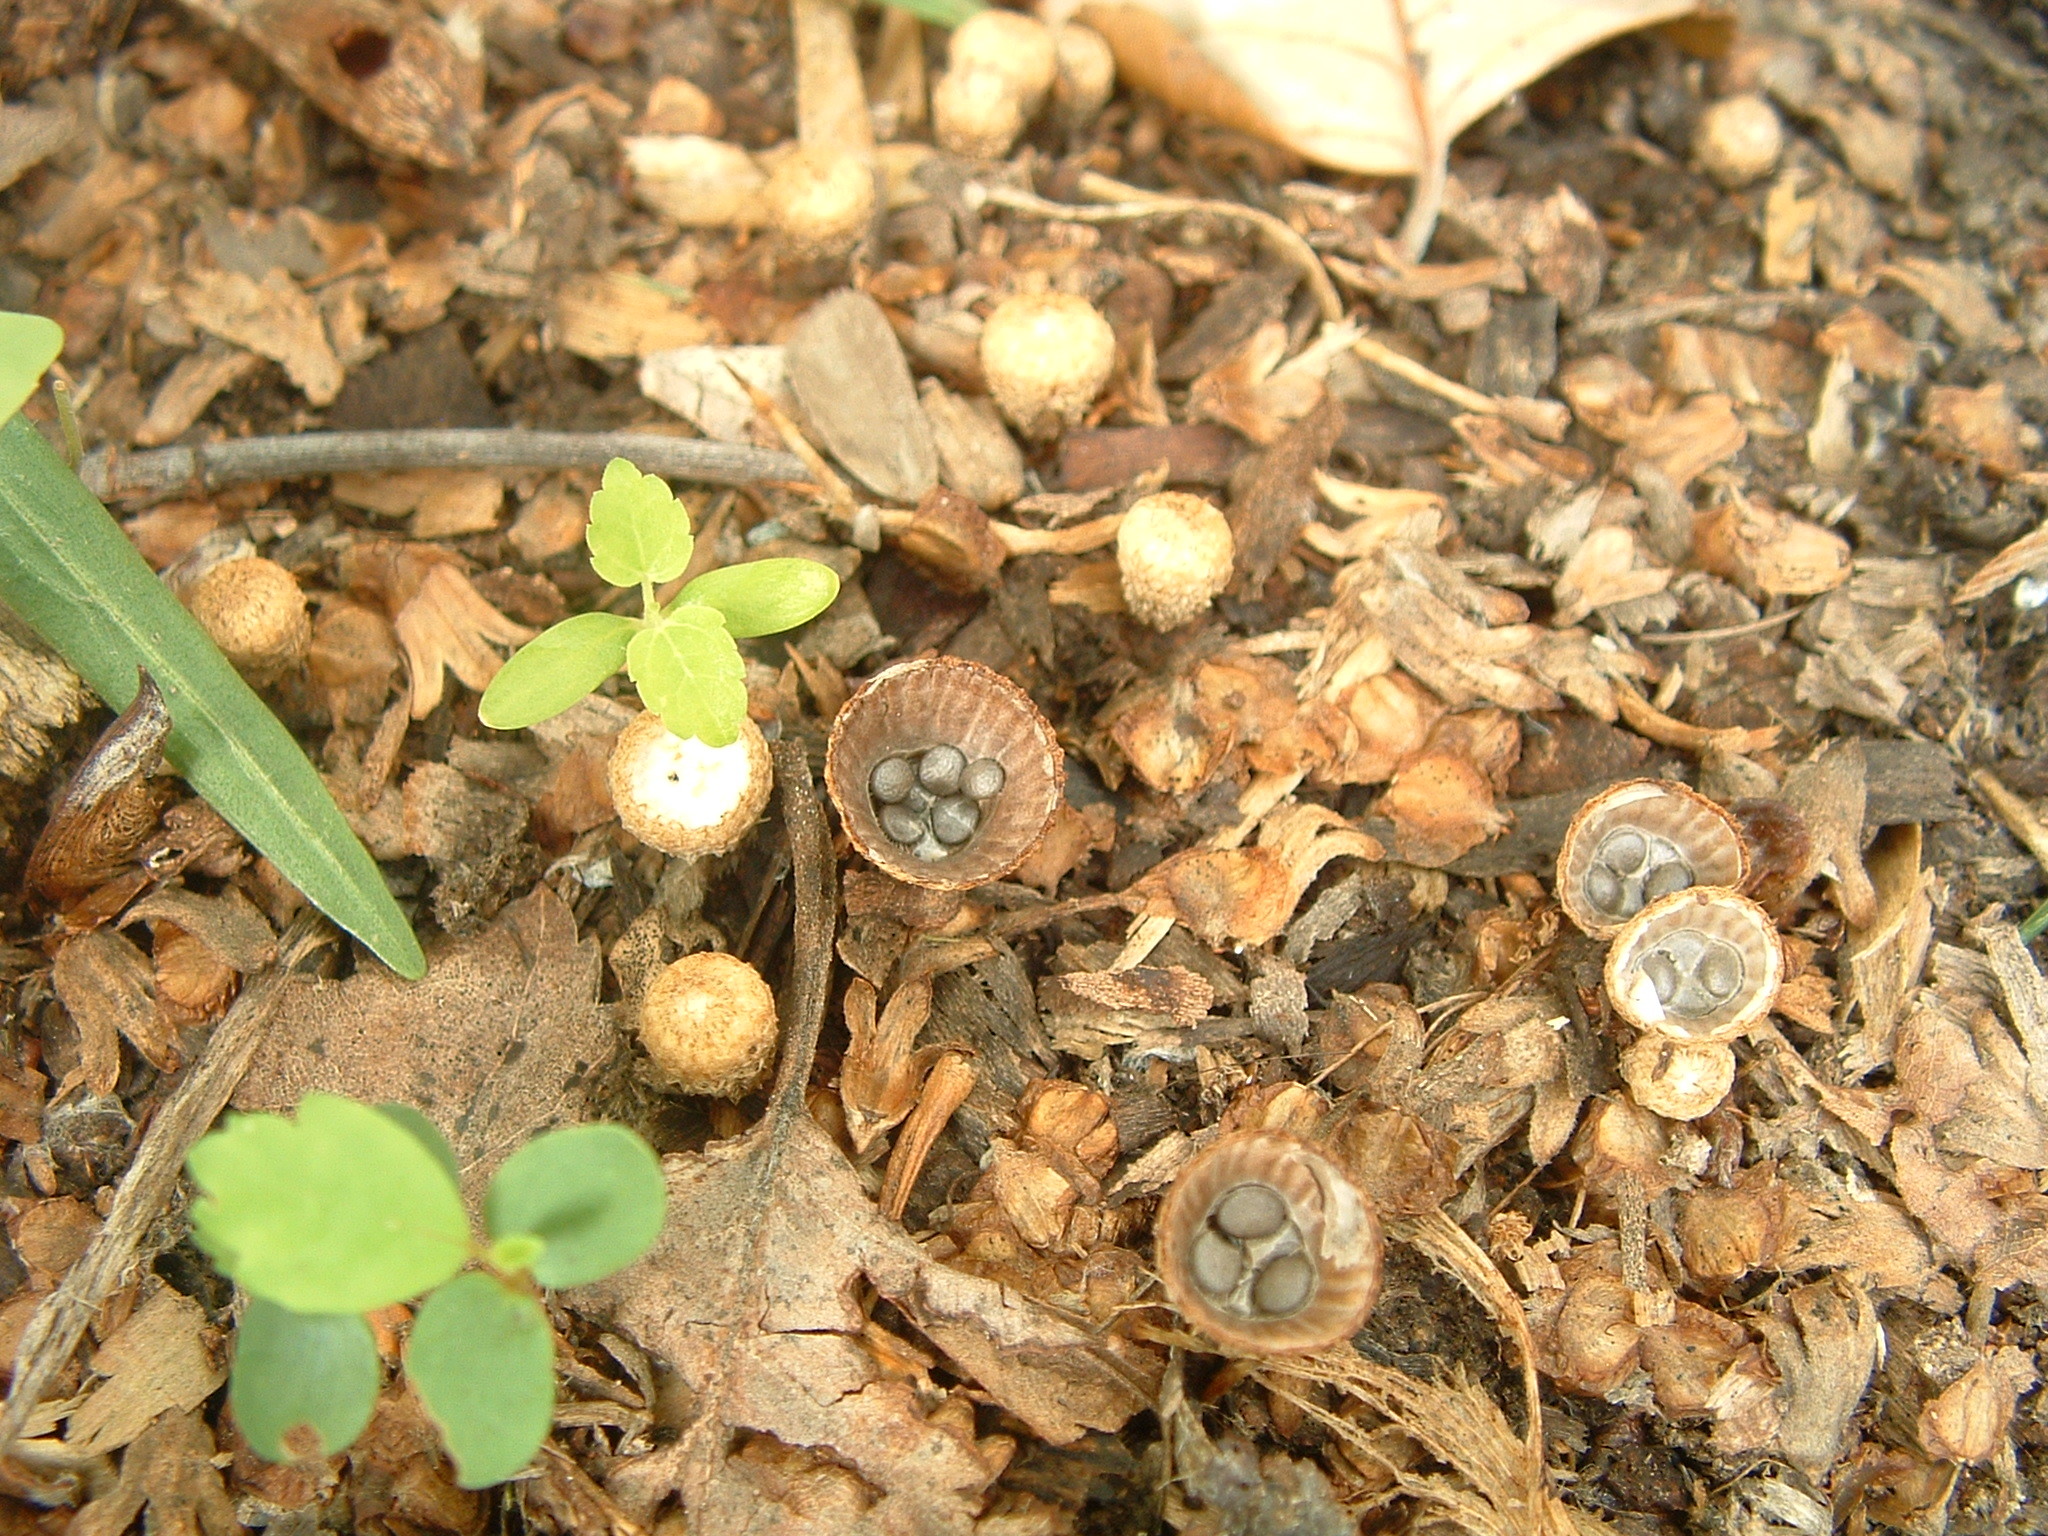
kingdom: Fungi
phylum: Basidiomycota
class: Agaricomycetes
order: Agaricales
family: Agaricaceae
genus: Cyathus
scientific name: Cyathus striatus
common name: Fluted bird's nest
